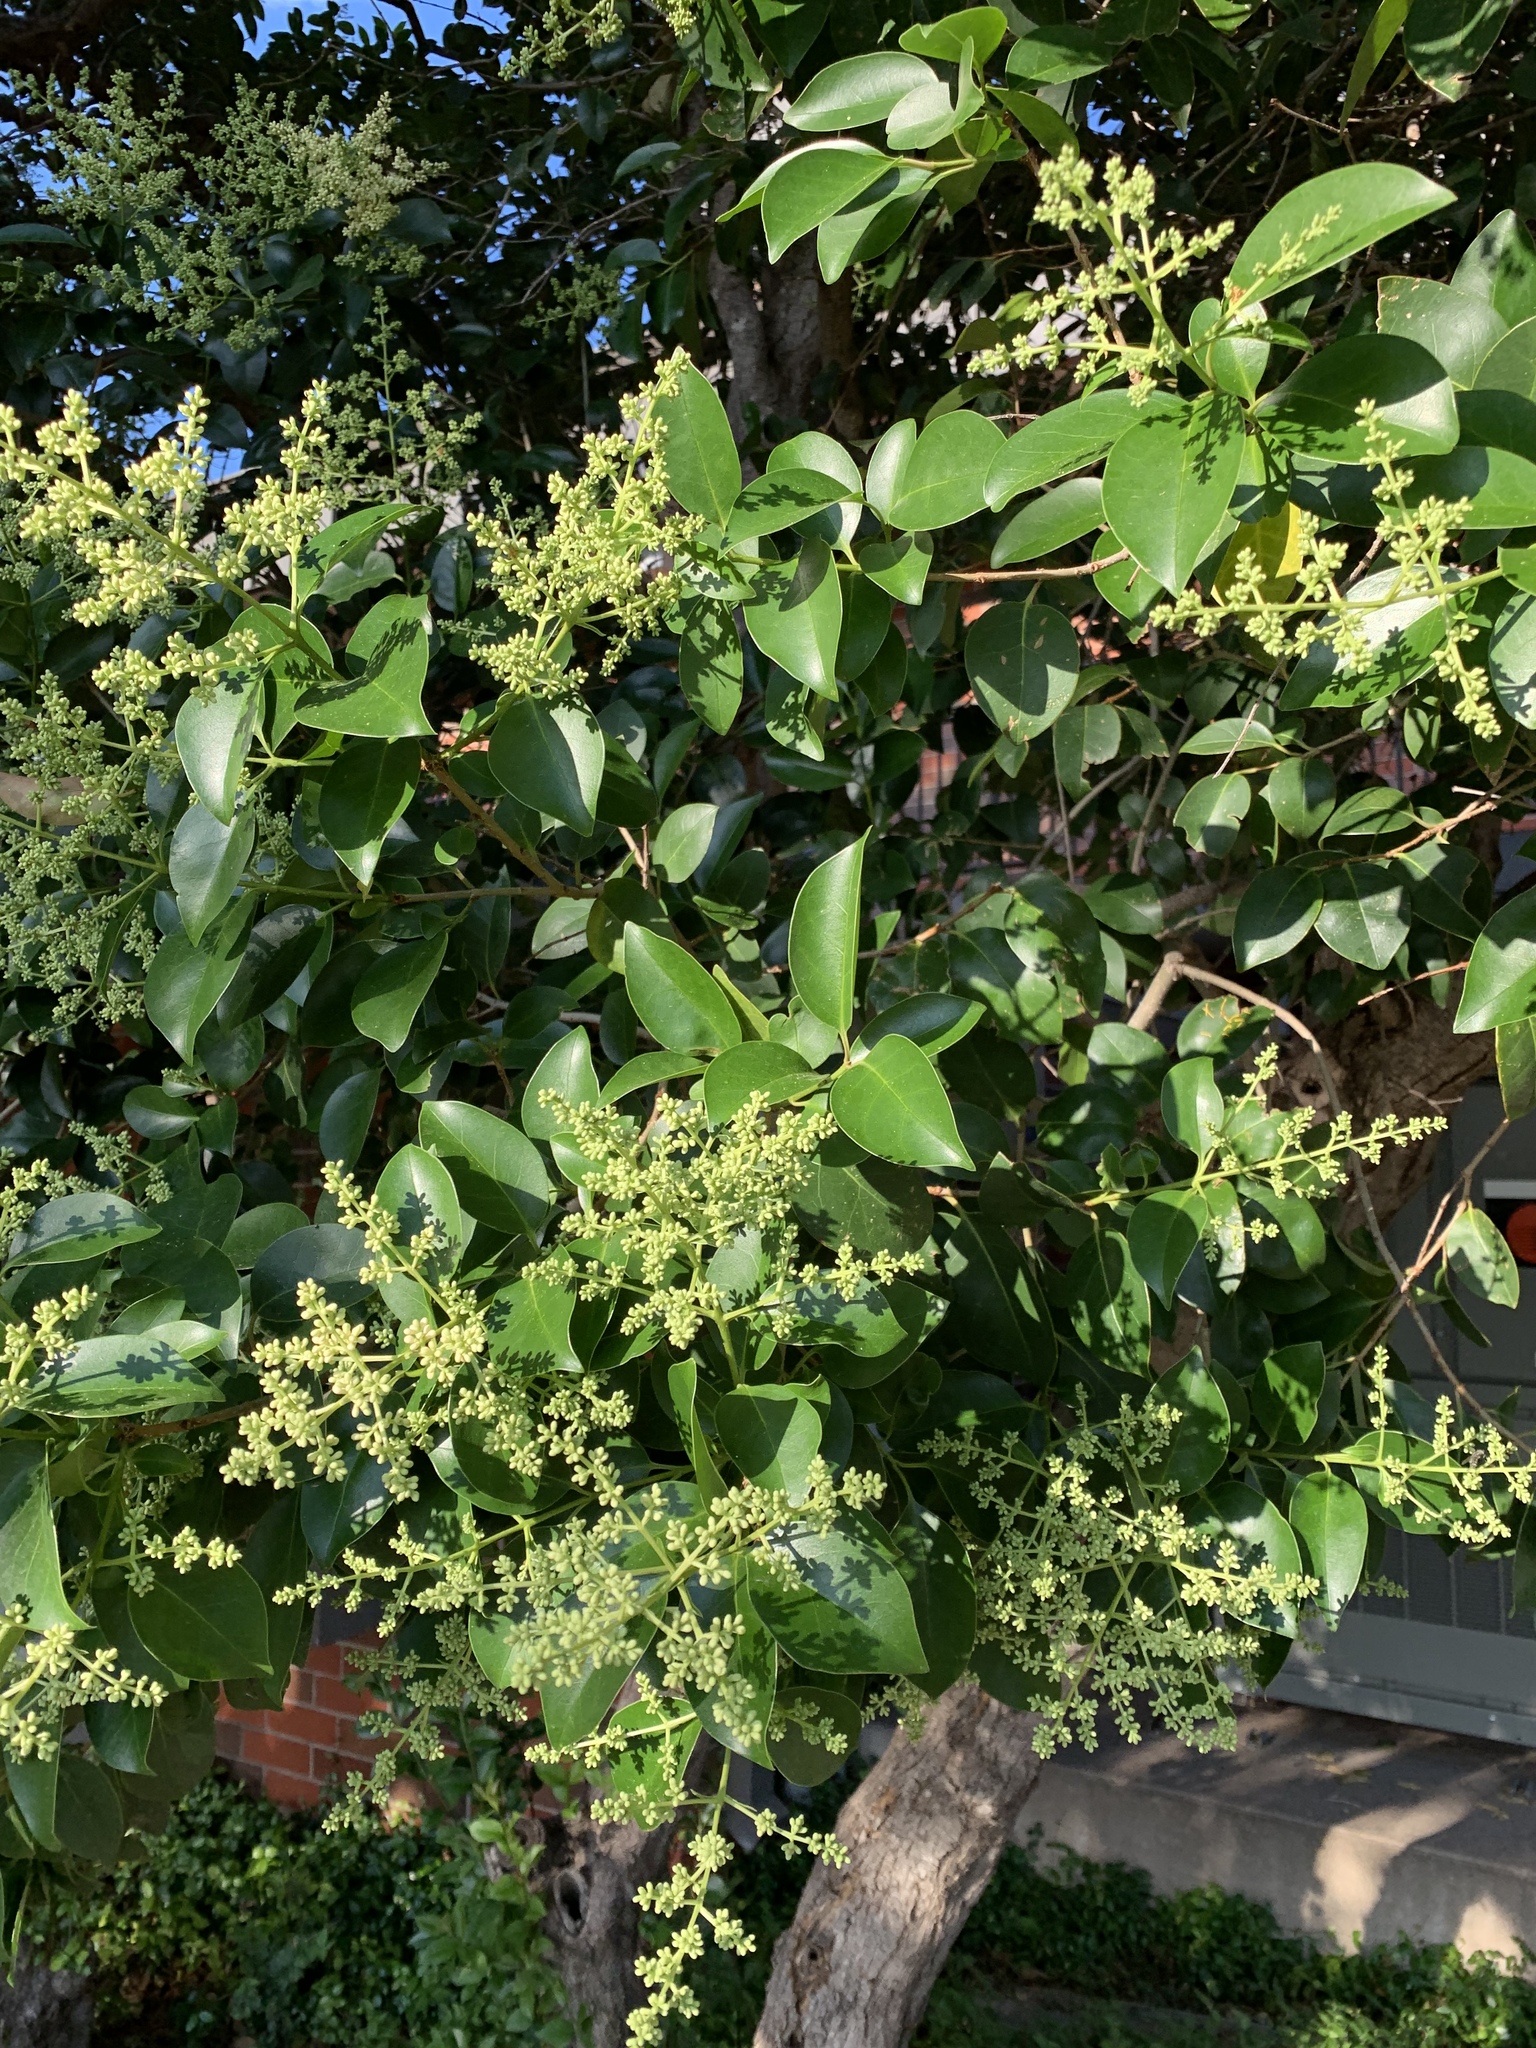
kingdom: Plantae
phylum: Tracheophyta
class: Magnoliopsida
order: Lamiales
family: Oleaceae
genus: Ligustrum
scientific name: Ligustrum lucidum
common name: Glossy privet
